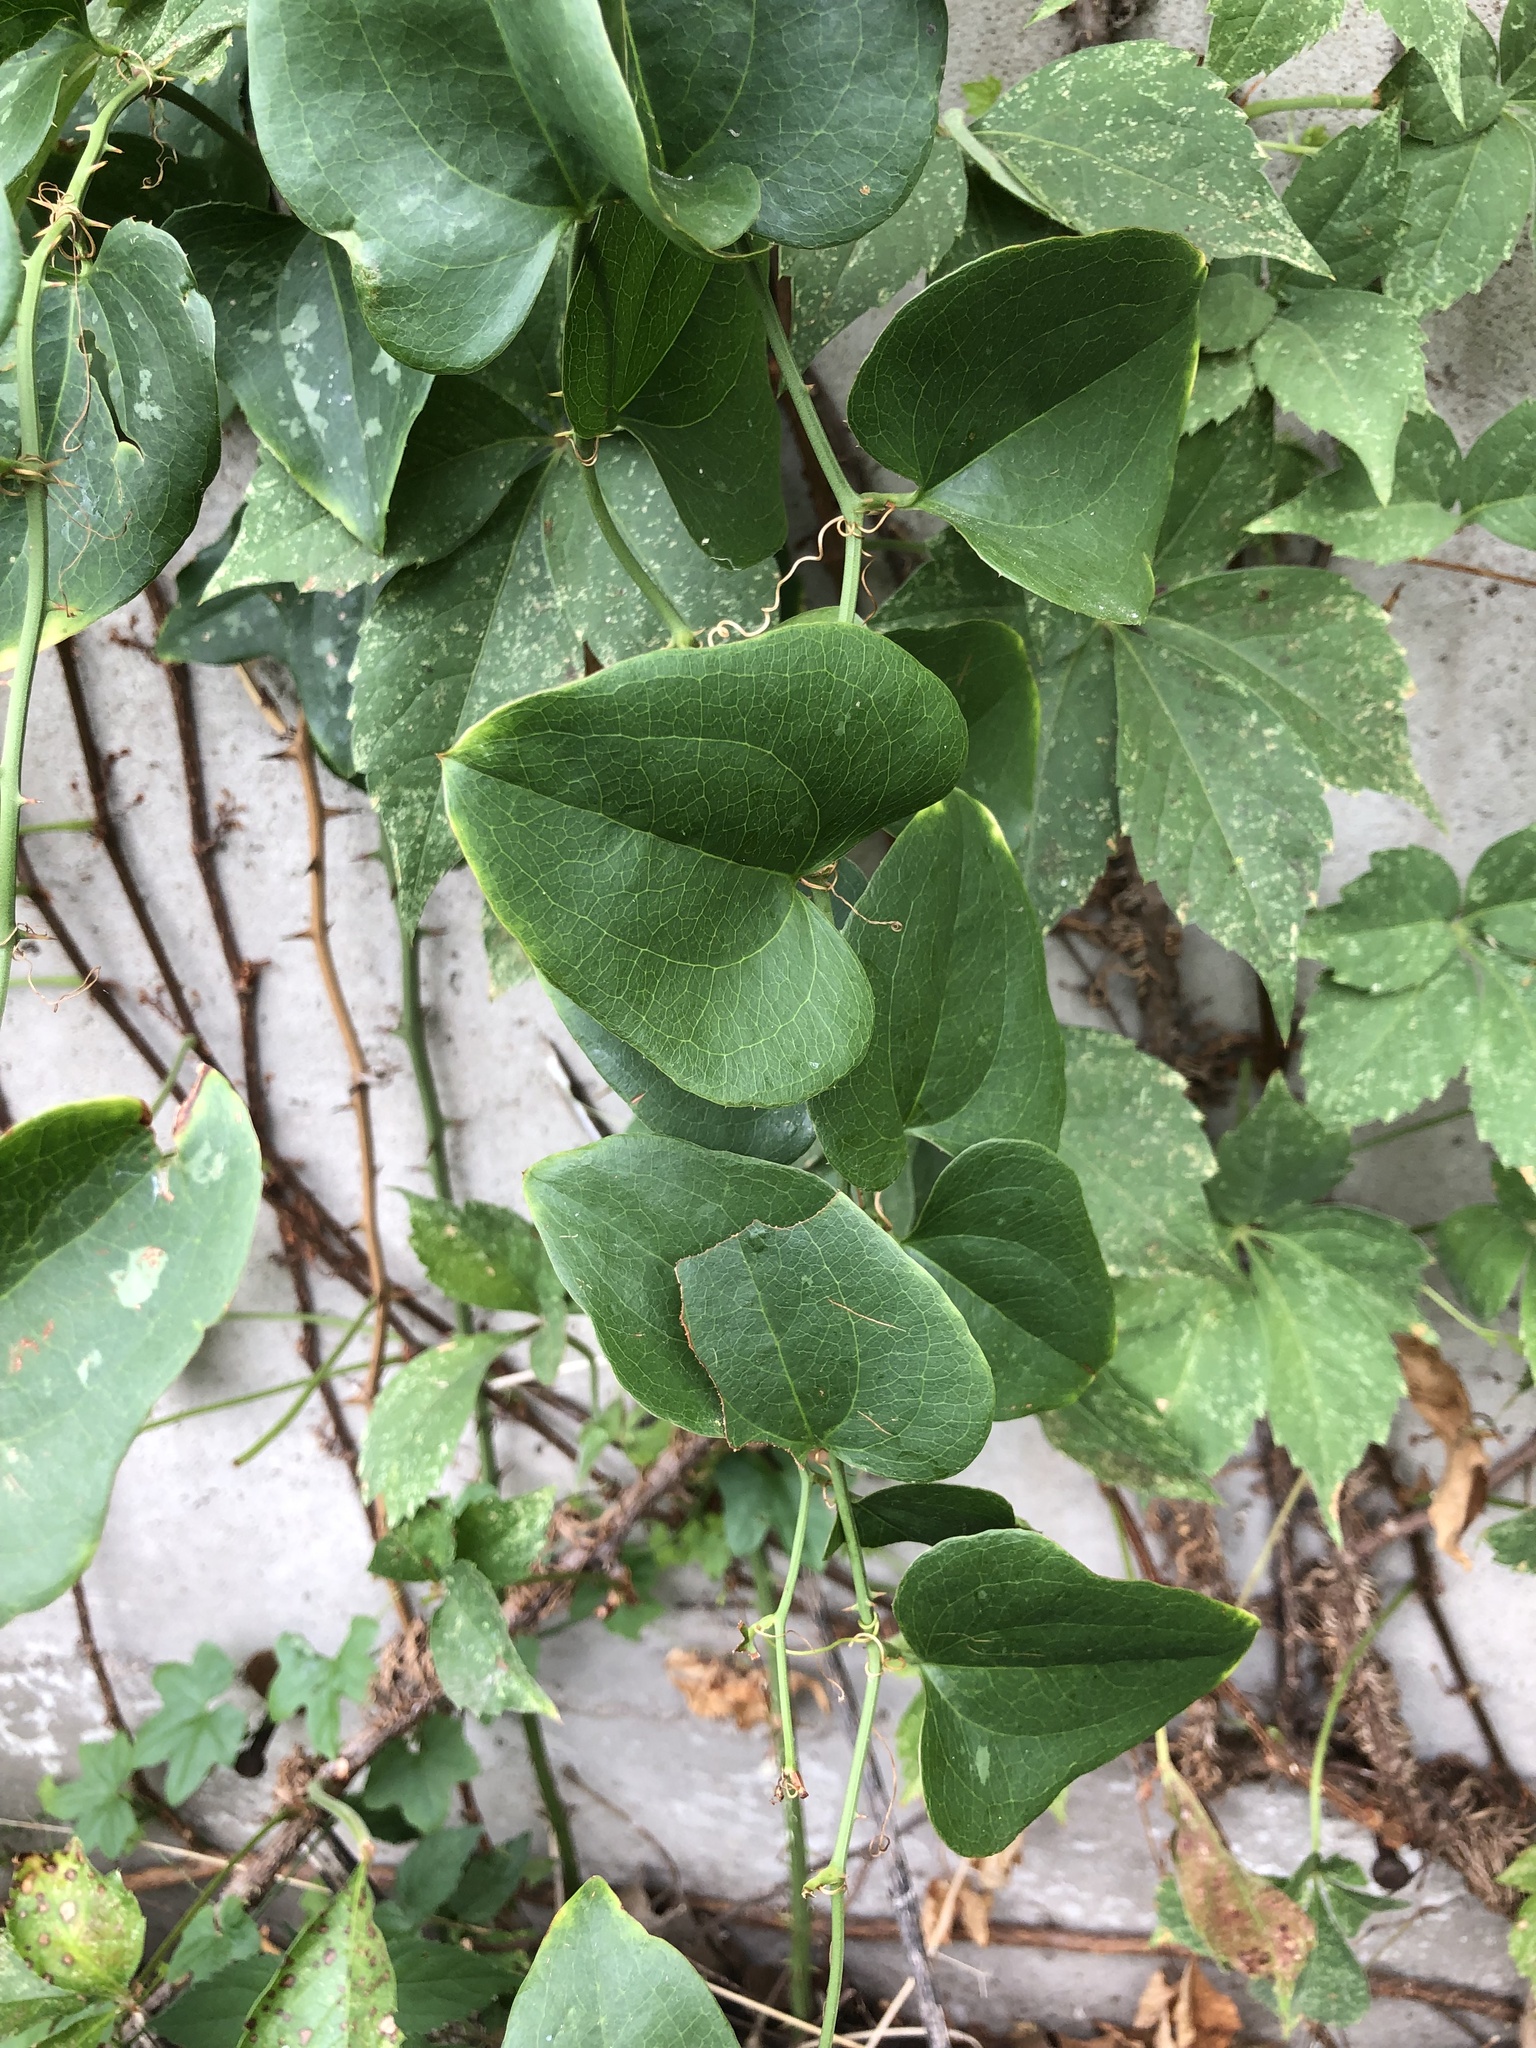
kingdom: Plantae
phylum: Tracheophyta
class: Liliopsida
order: Liliales
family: Smilacaceae
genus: Smilax
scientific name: Smilax bona-nox
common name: Catbrier
